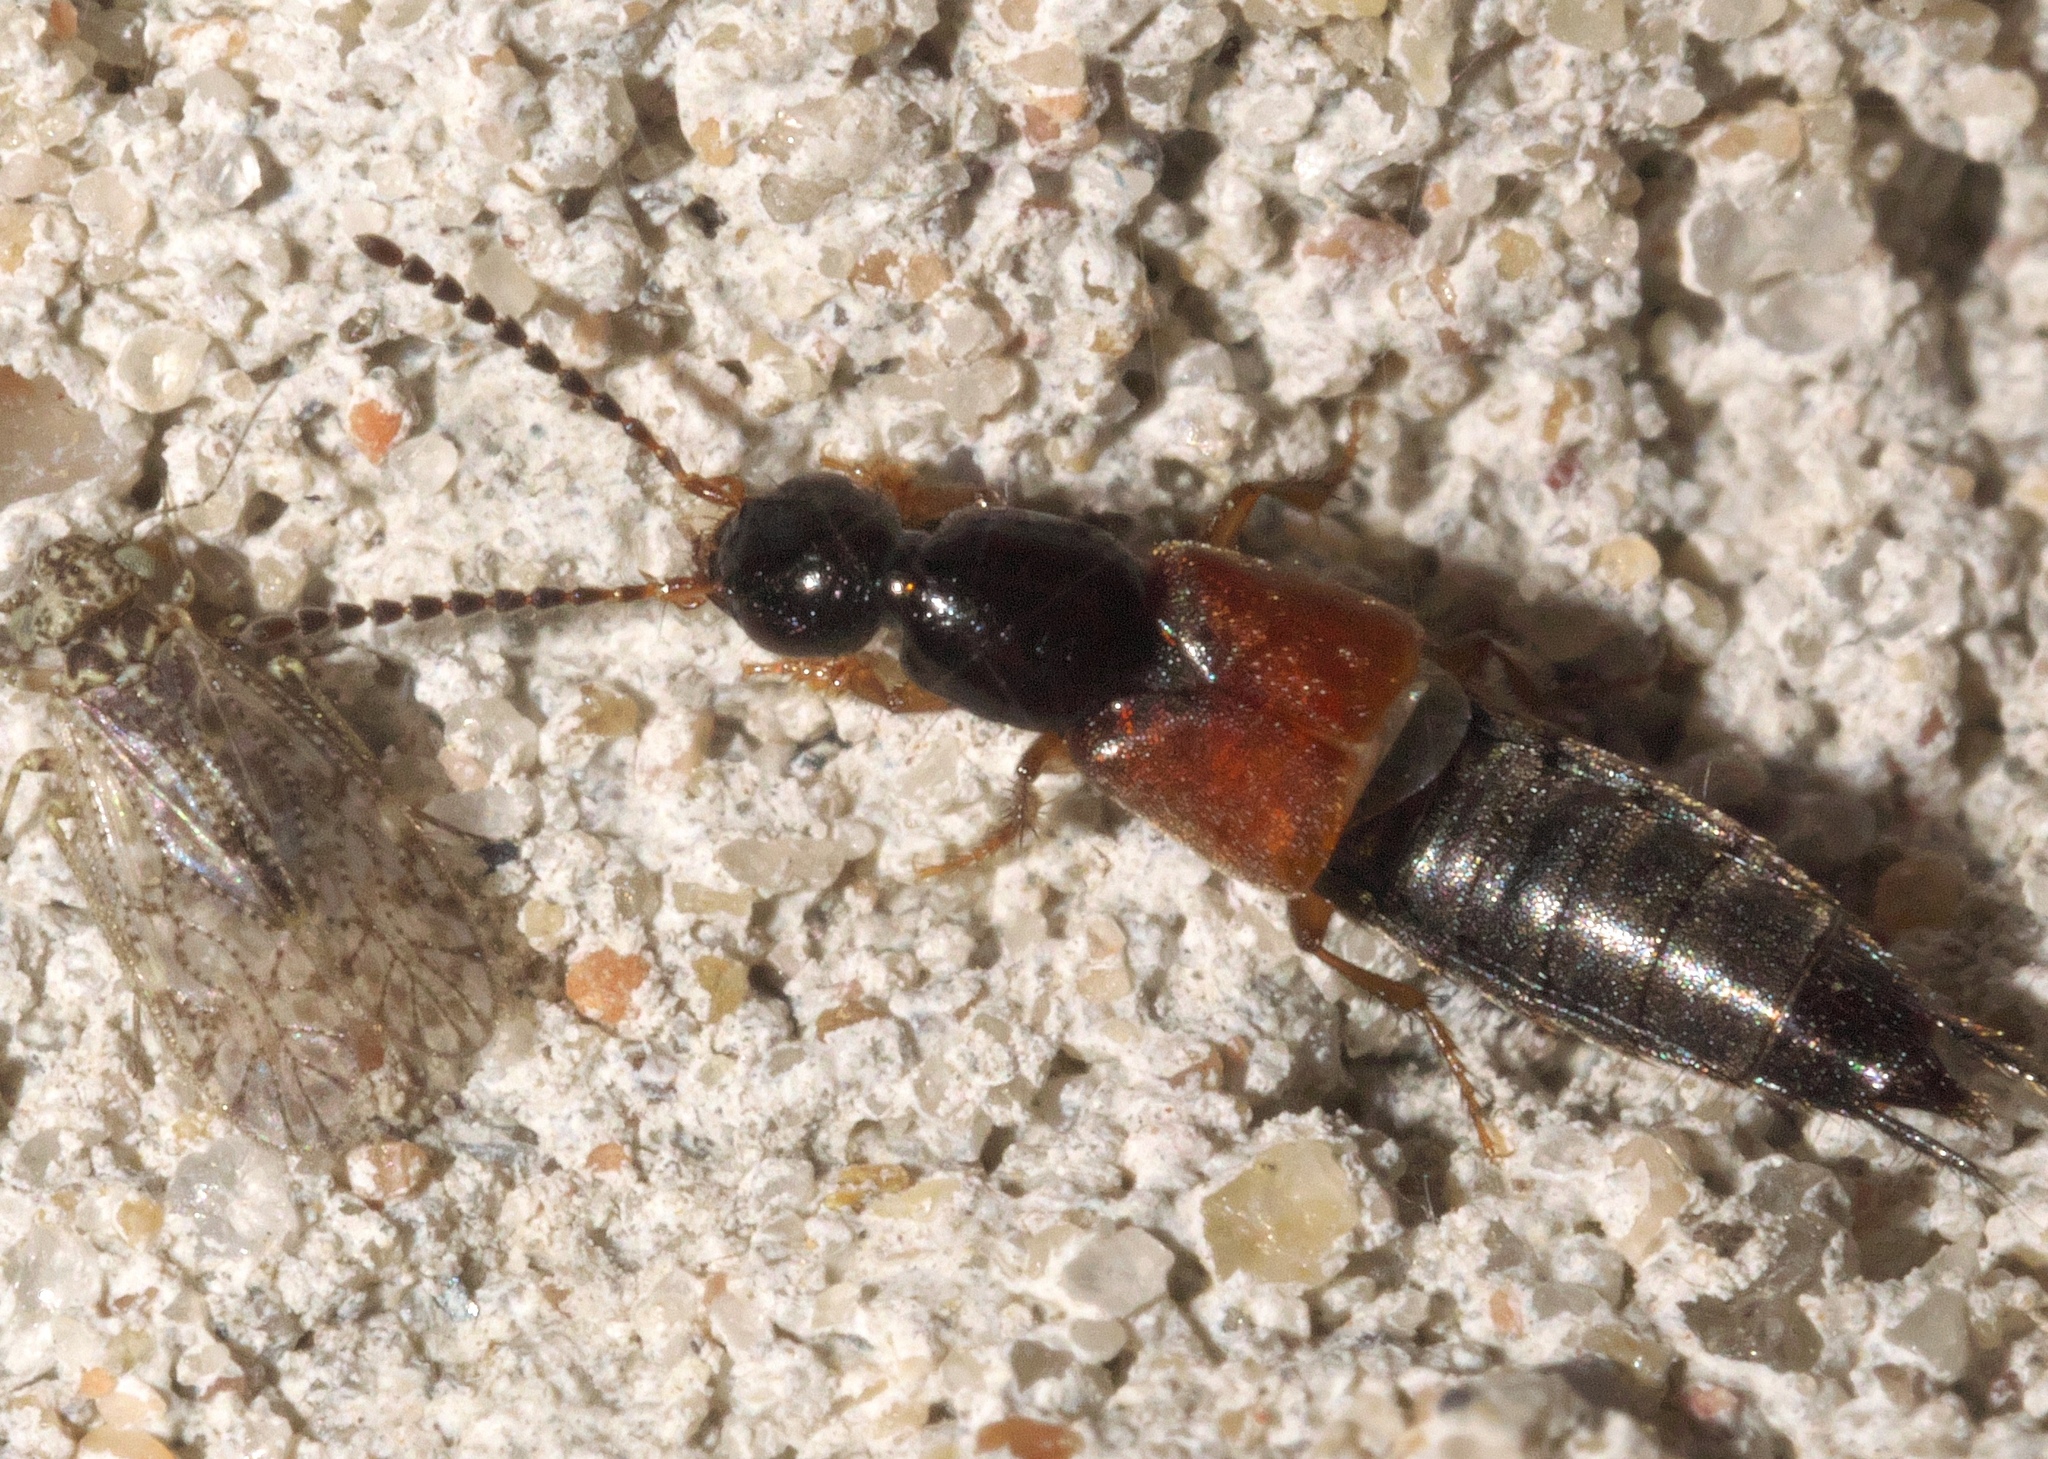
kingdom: Animalia
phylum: Arthropoda
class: Insecta
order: Coleoptera
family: Staphylinidae
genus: Philonthus
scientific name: Philonthus rufulus
